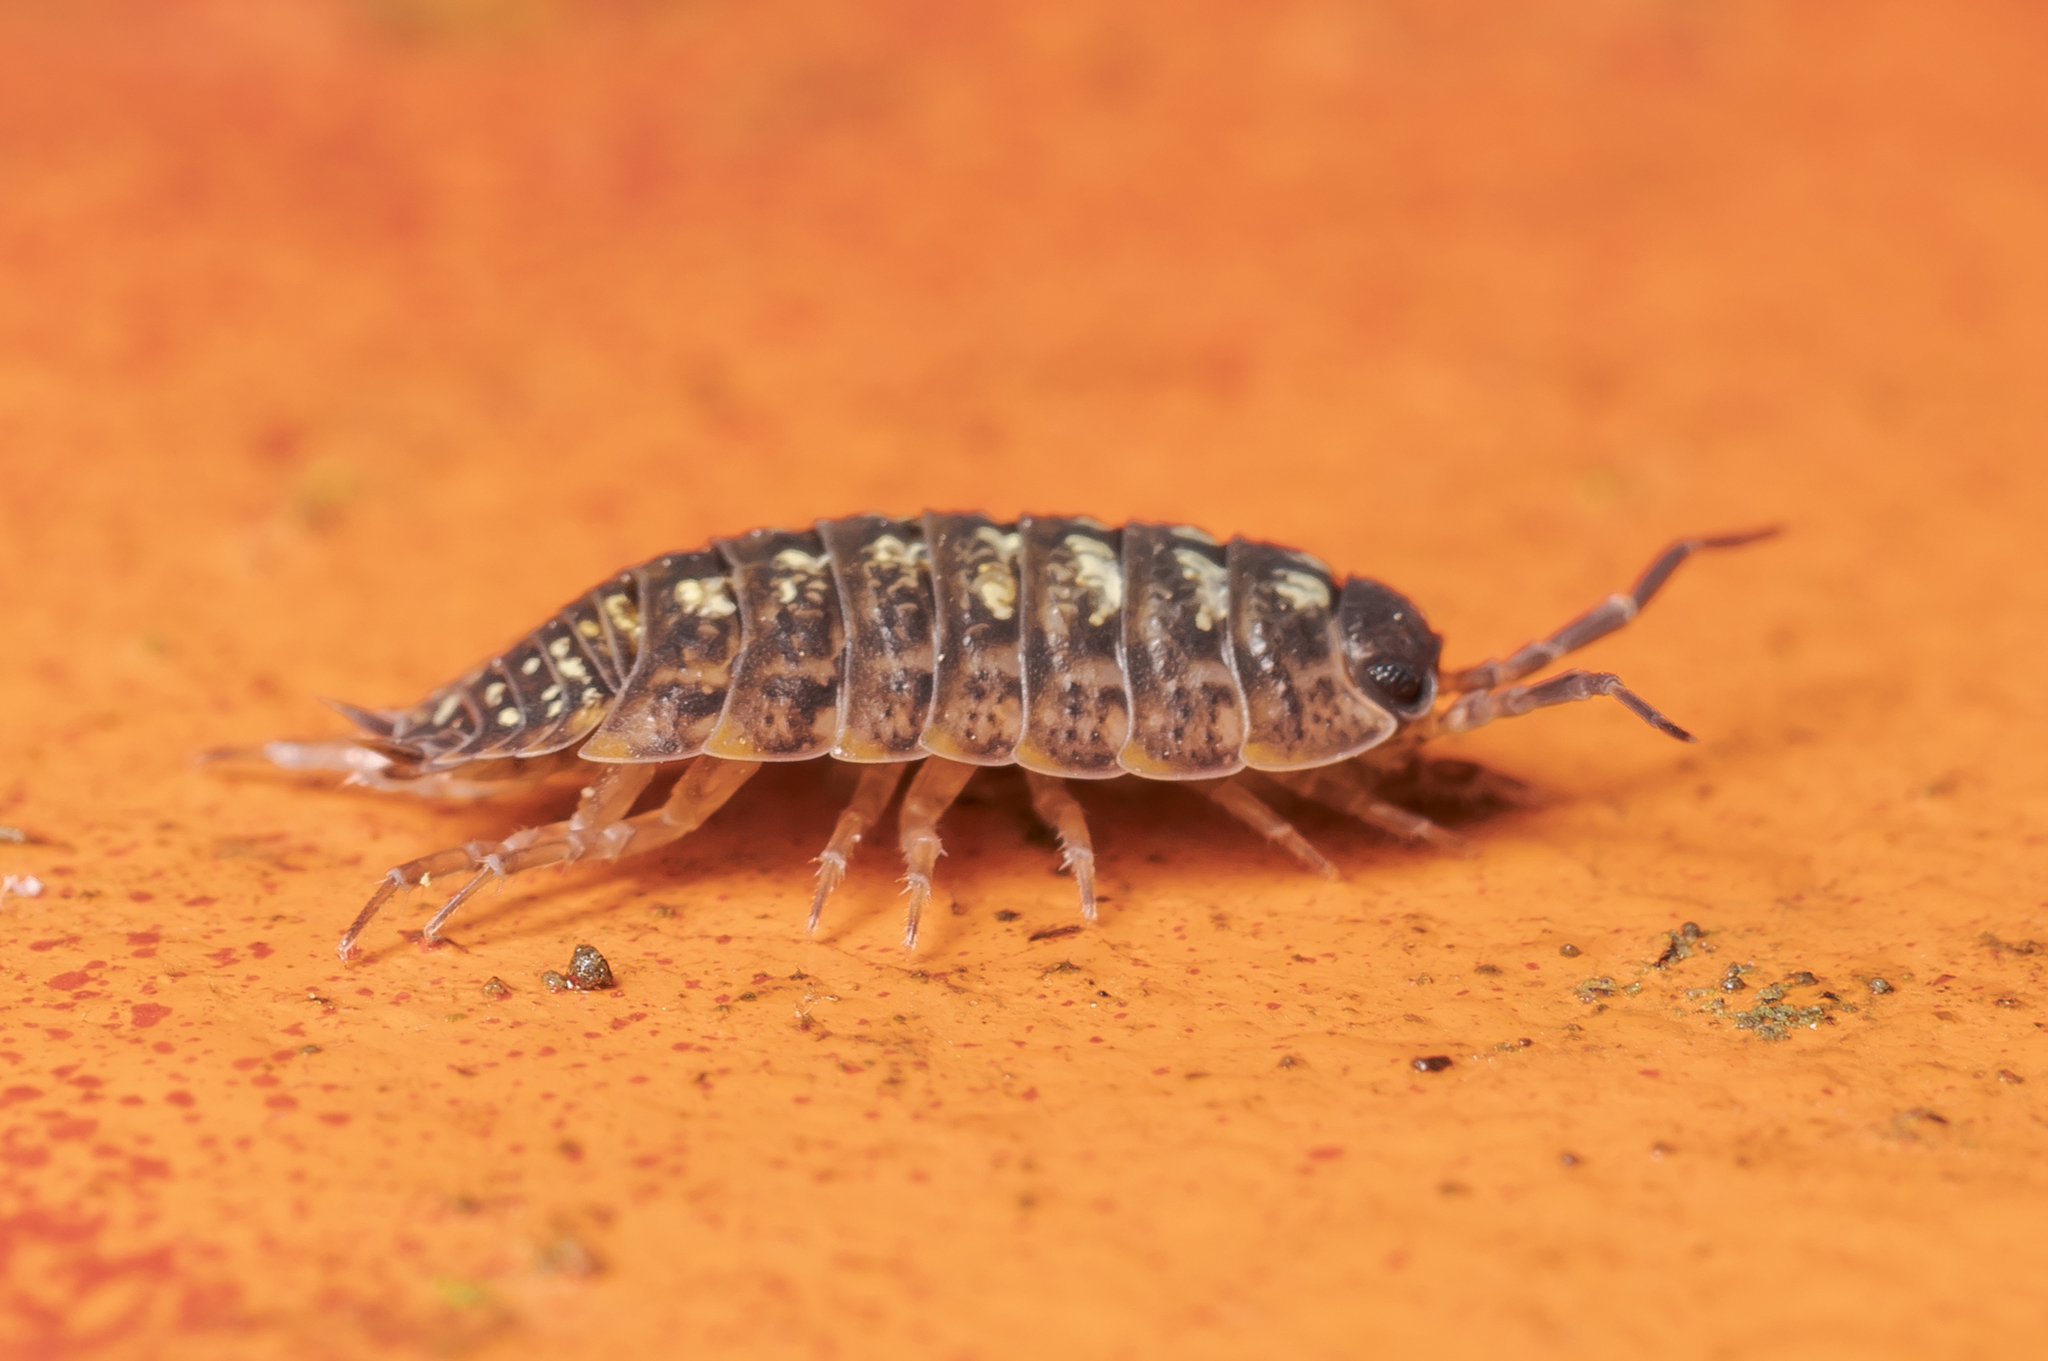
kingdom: Animalia
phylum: Arthropoda
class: Malacostraca
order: Isopoda
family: Porcellionidae
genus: Porcellio
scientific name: Porcellio monticola
